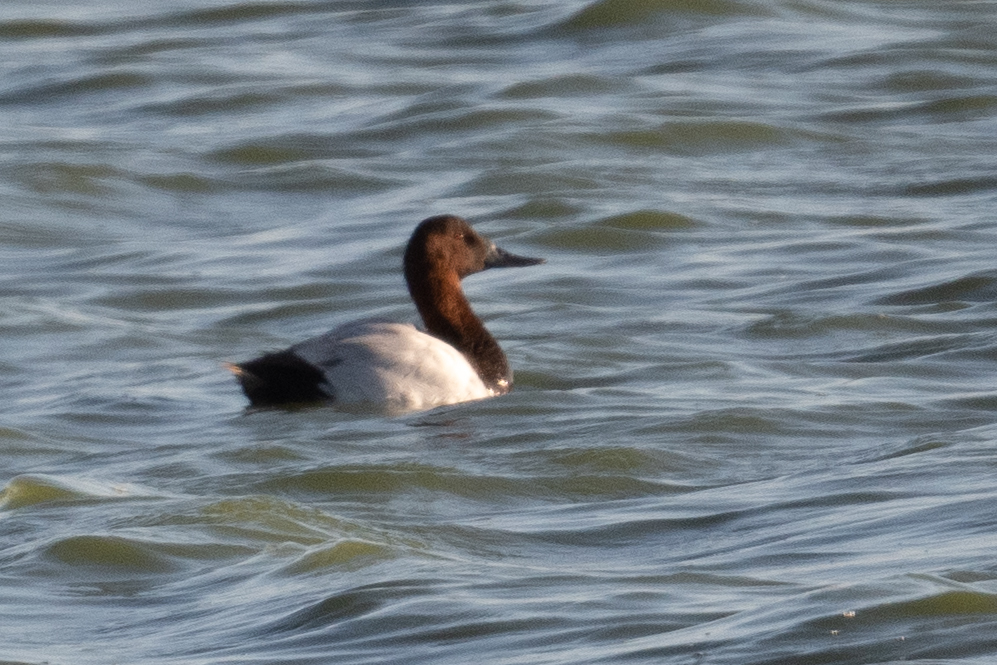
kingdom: Animalia
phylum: Chordata
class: Aves
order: Anseriformes
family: Anatidae
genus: Aythya
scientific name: Aythya valisineria
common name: Canvasback
